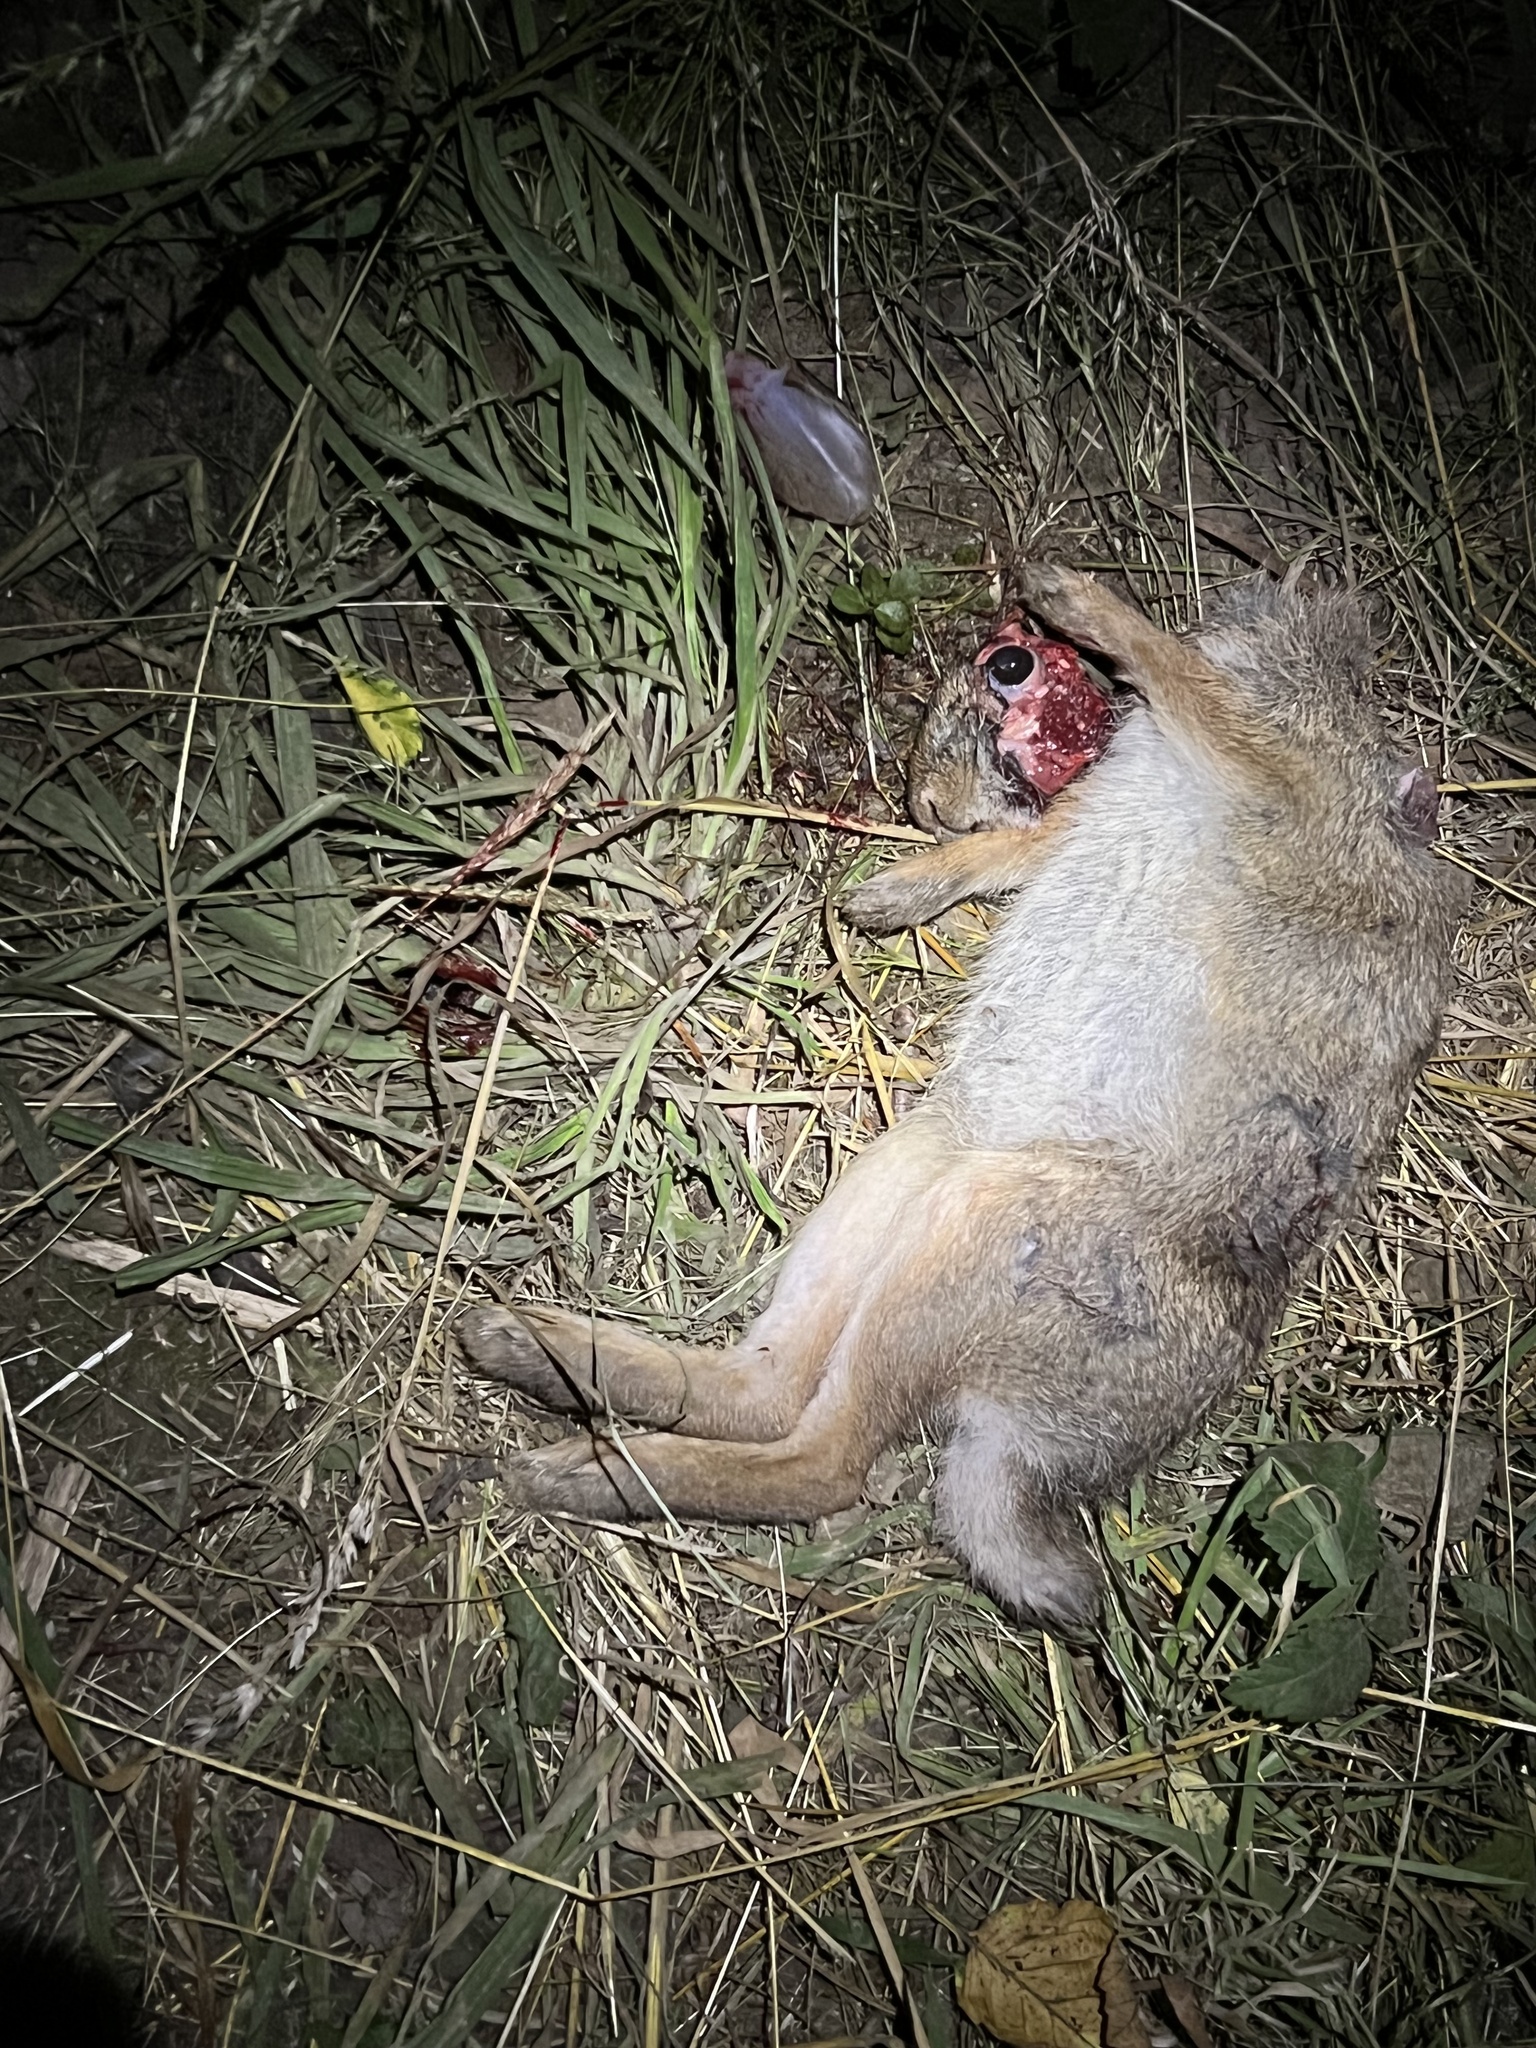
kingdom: Animalia
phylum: Chordata
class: Mammalia
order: Lagomorpha
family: Leporidae
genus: Sylvilagus
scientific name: Sylvilagus floridanus
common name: Eastern cottontail
